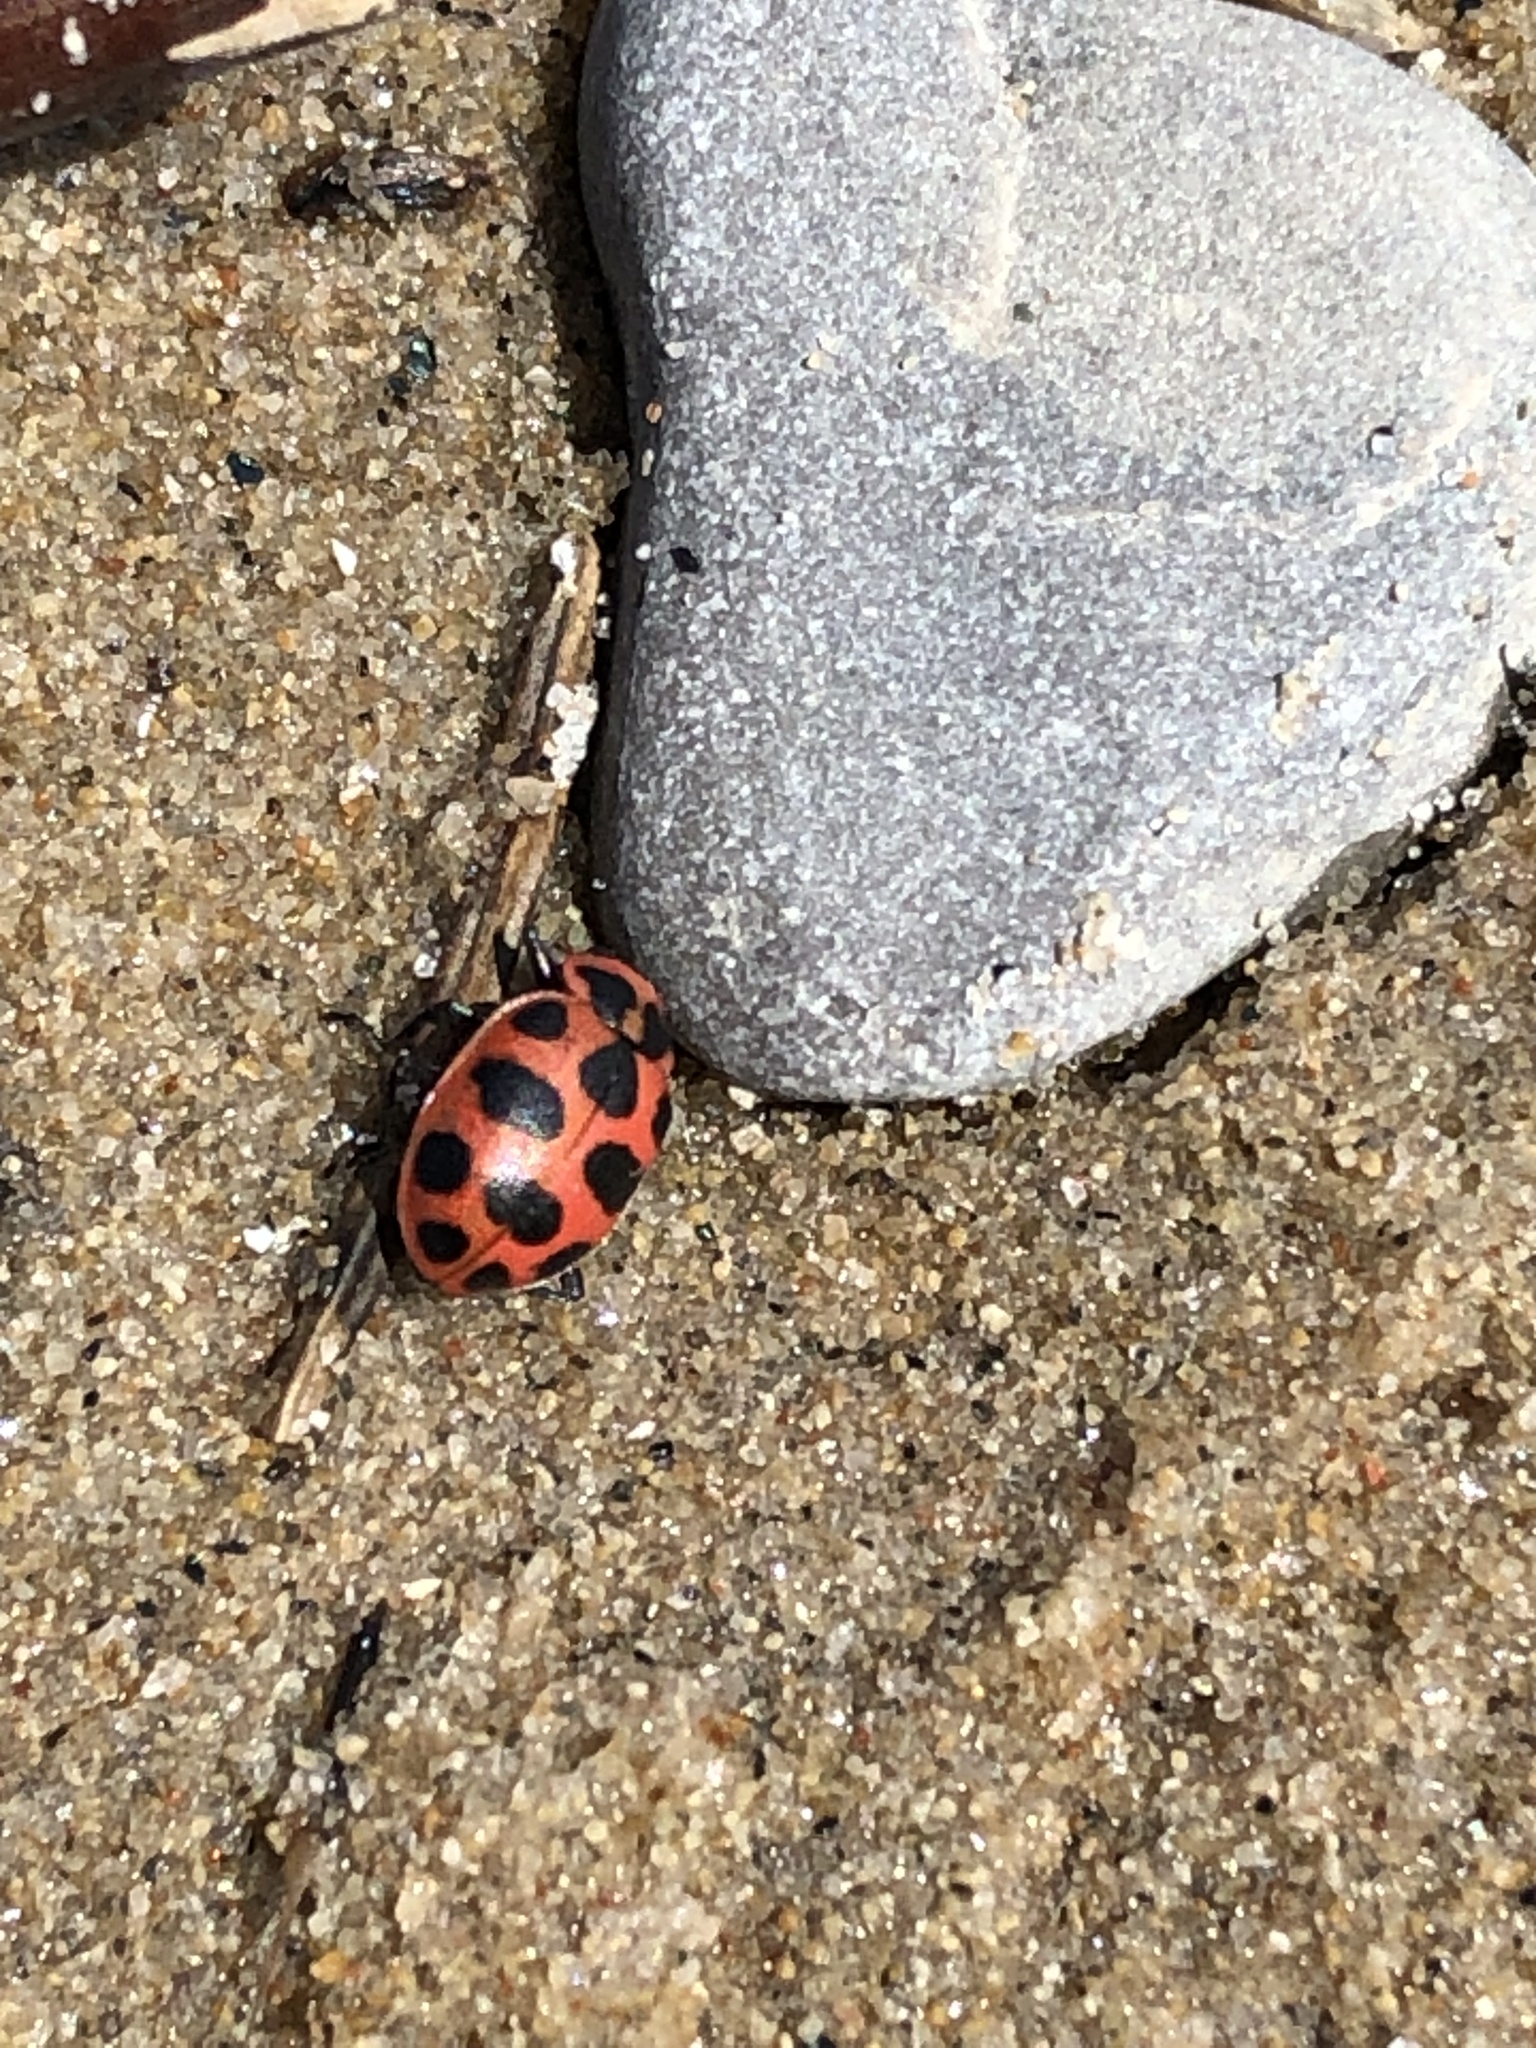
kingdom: Animalia
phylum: Arthropoda
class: Insecta
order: Coleoptera
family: Coccinellidae
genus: Coleomegilla
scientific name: Coleomegilla maculata
